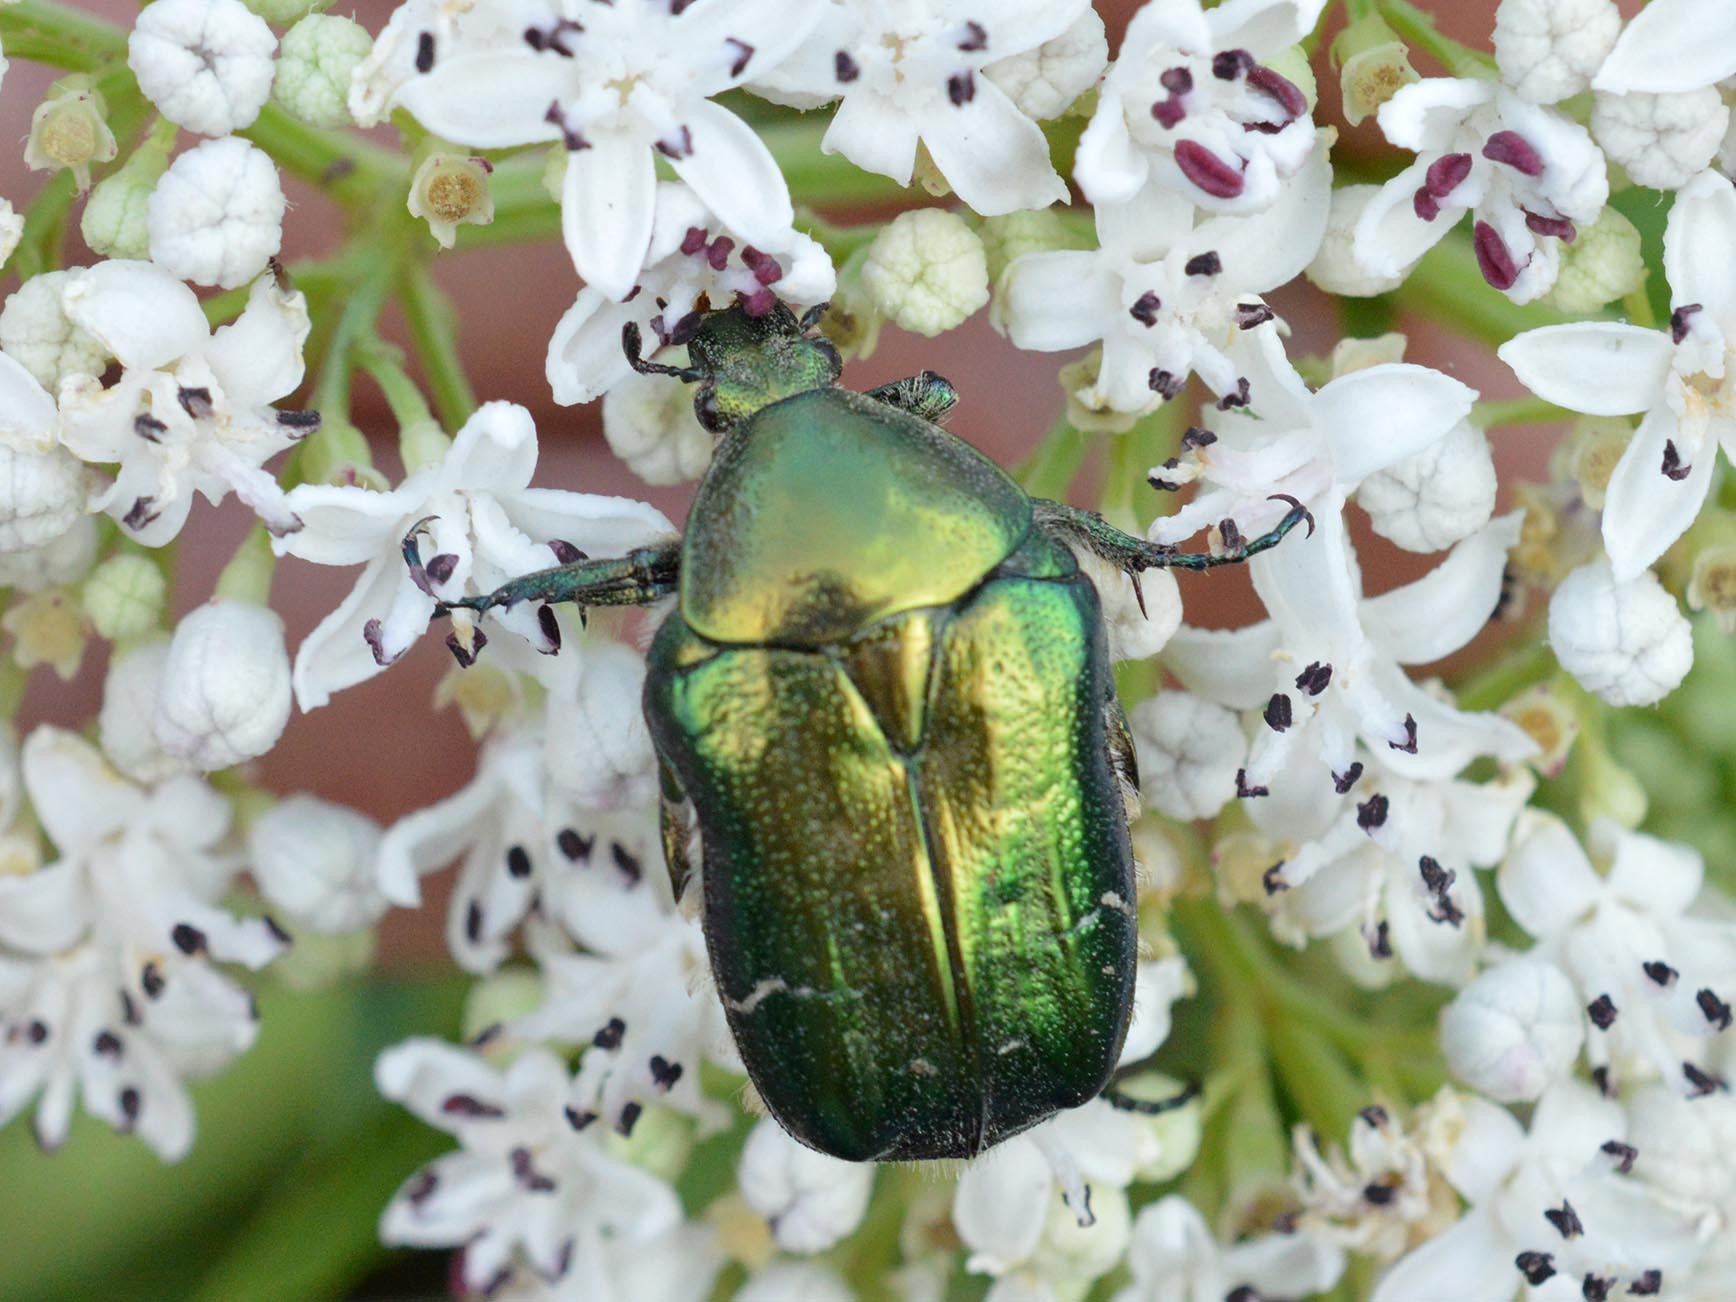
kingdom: Animalia
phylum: Arthropoda
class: Insecta
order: Coleoptera
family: Scarabaeidae
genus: Cetonia
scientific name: Cetonia aurata
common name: Rose chafer
